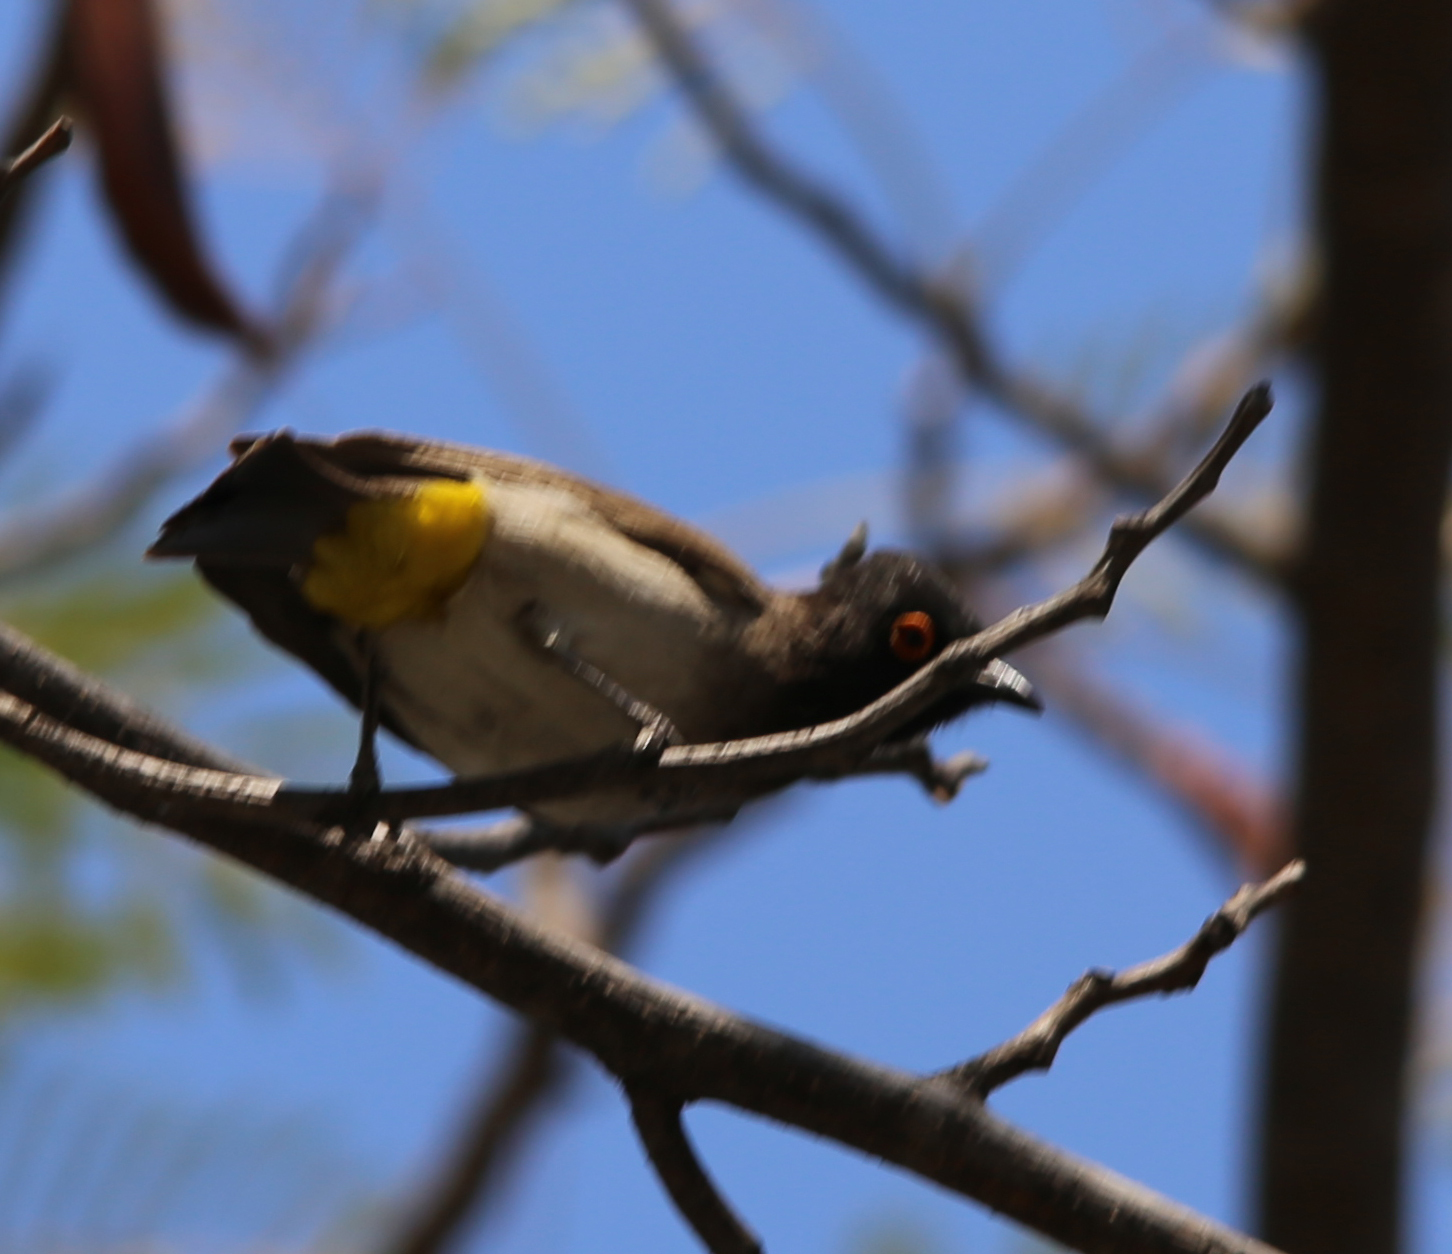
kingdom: Animalia
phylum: Chordata
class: Aves
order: Passeriformes
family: Pycnonotidae
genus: Pycnonotus
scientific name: Pycnonotus nigricans
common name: African red-eyed bulbul
